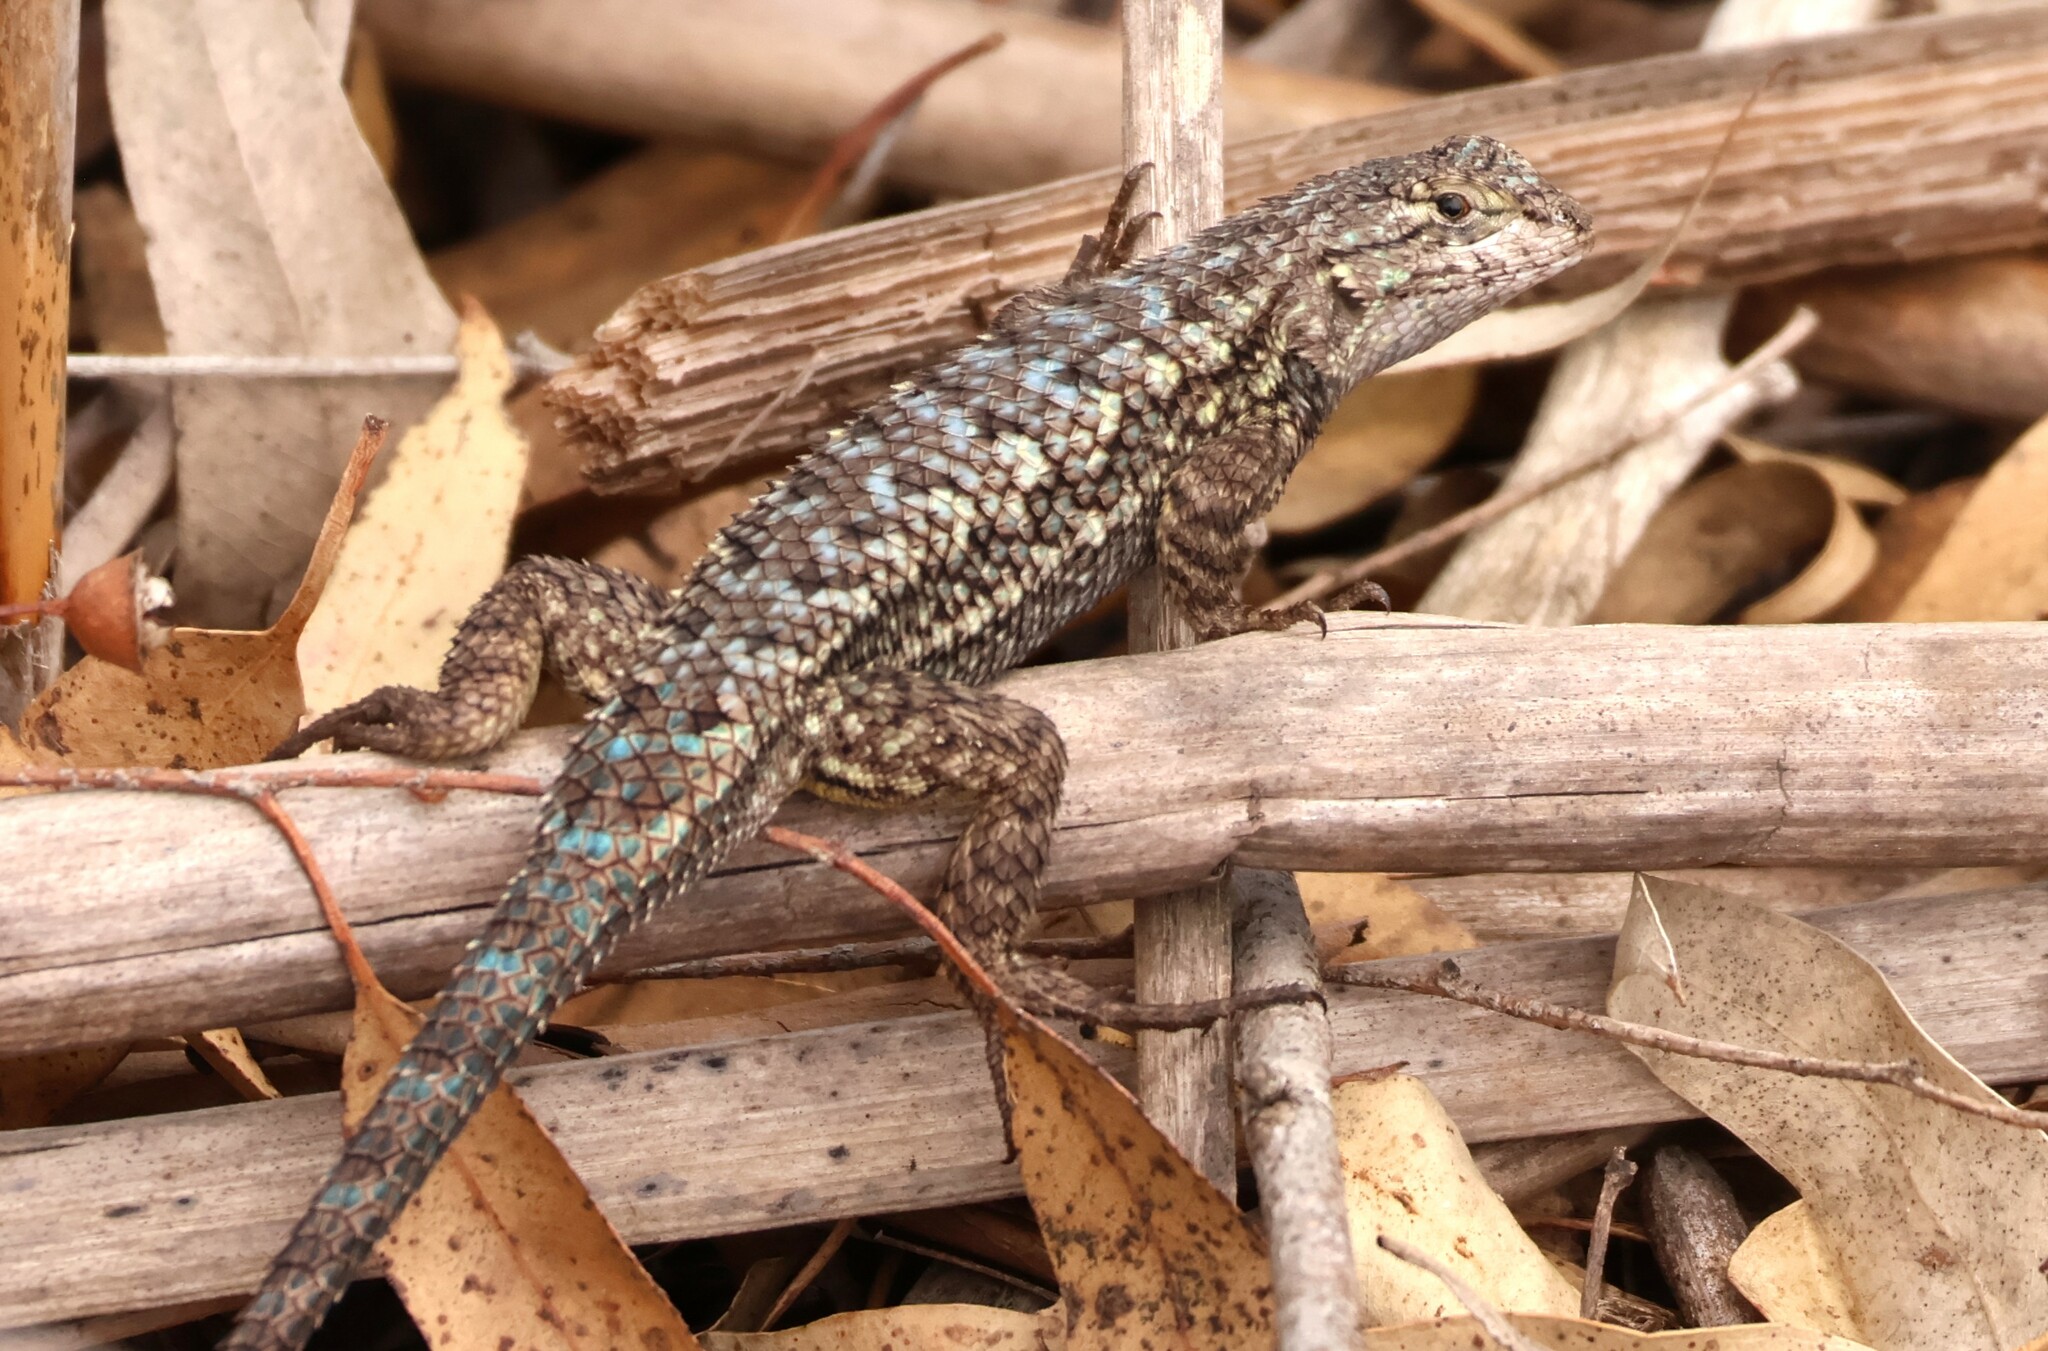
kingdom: Animalia
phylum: Chordata
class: Squamata
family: Phrynosomatidae
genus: Sceloporus
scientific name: Sceloporus occidentalis
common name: Western fence lizard
